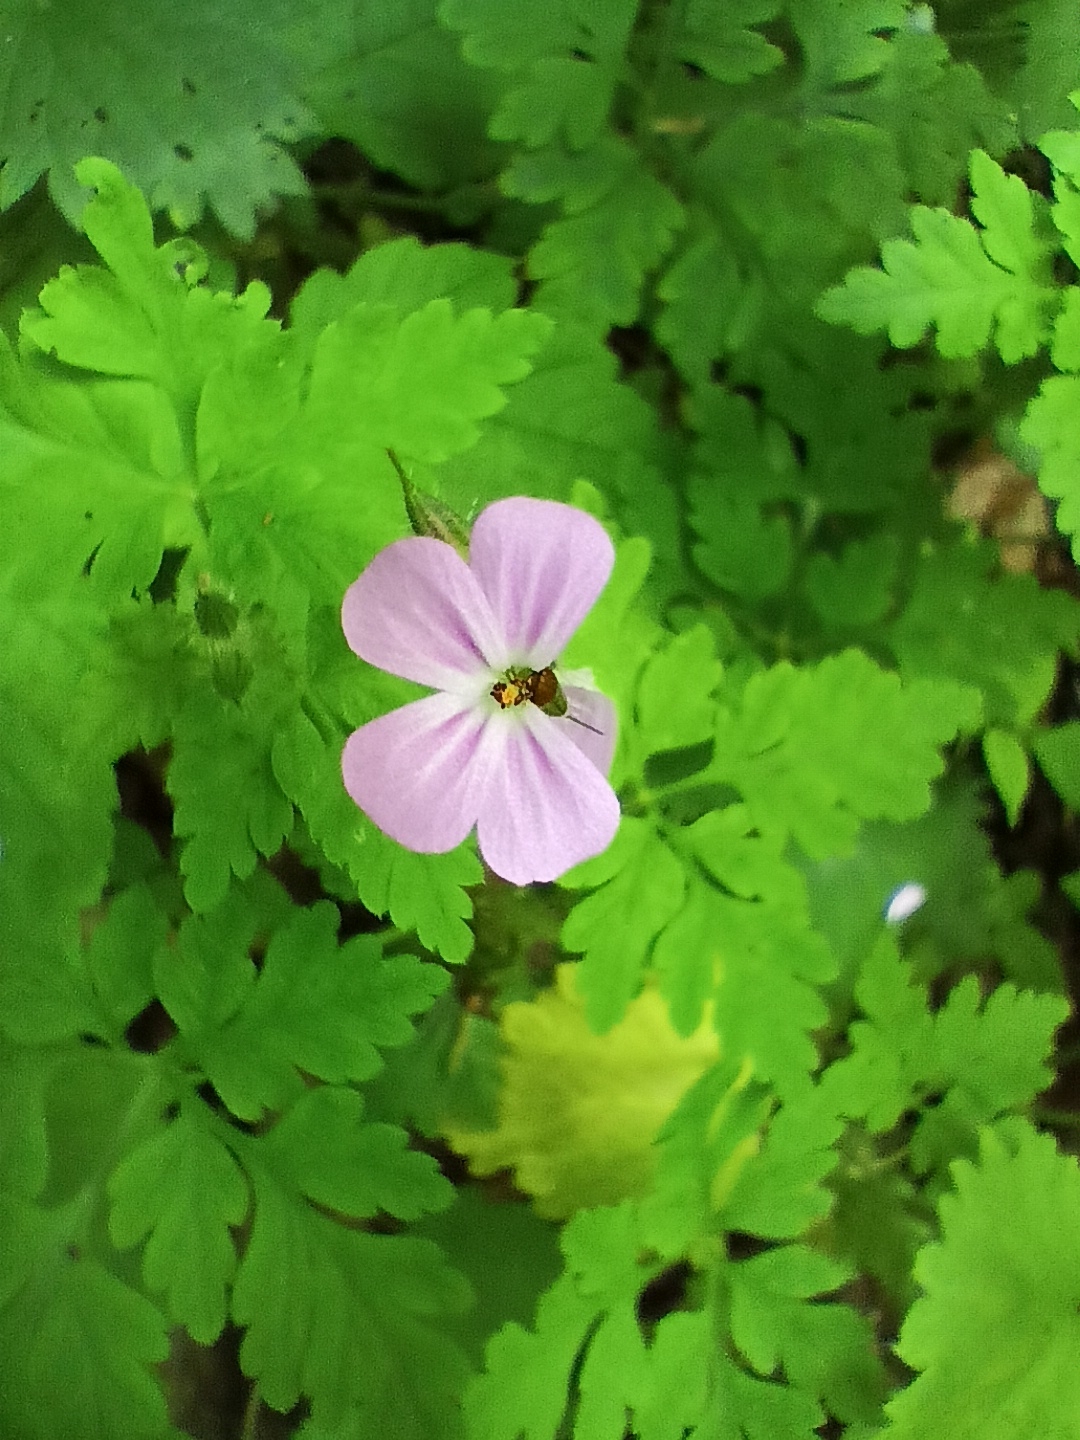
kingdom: Plantae
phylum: Tracheophyta
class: Magnoliopsida
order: Geraniales
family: Geraniaceae
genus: Geranium
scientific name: Geranium robertianum
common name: Herb-robert
